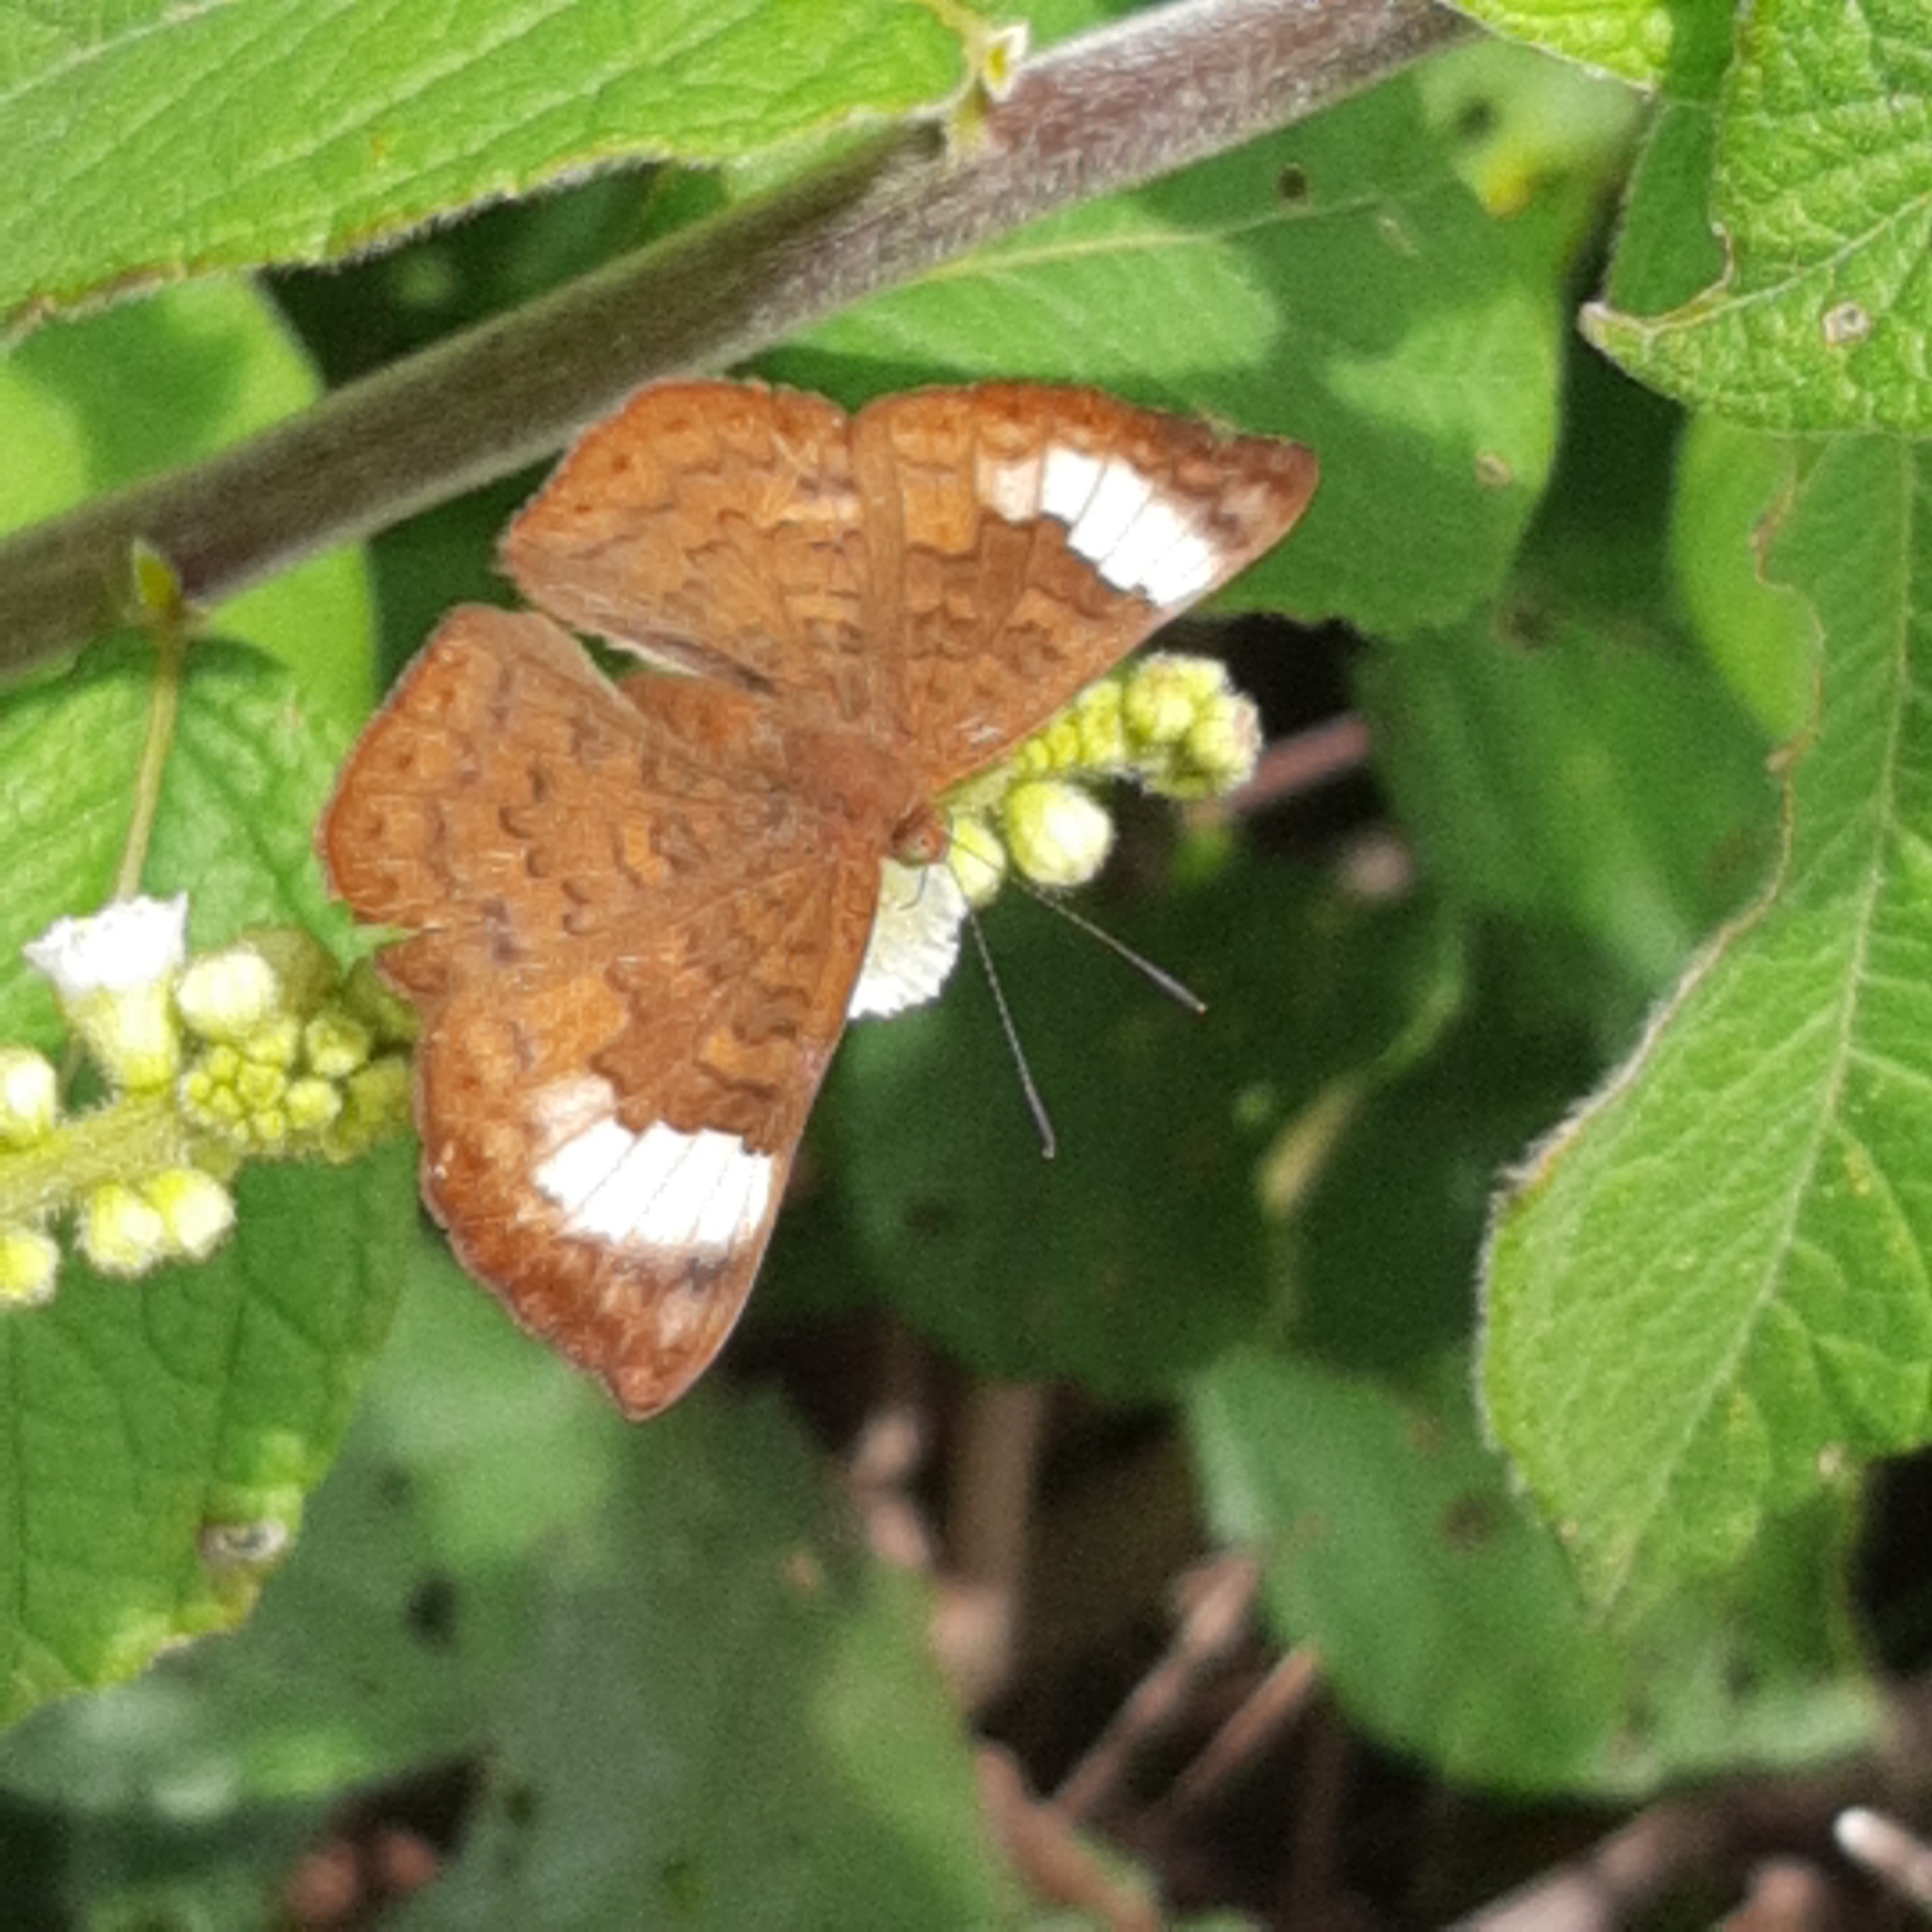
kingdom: Animalia
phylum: Arthropoda
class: Insecta
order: Lepidoptera
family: Lycaenidae
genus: Emesis
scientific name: Emesis tenedia
